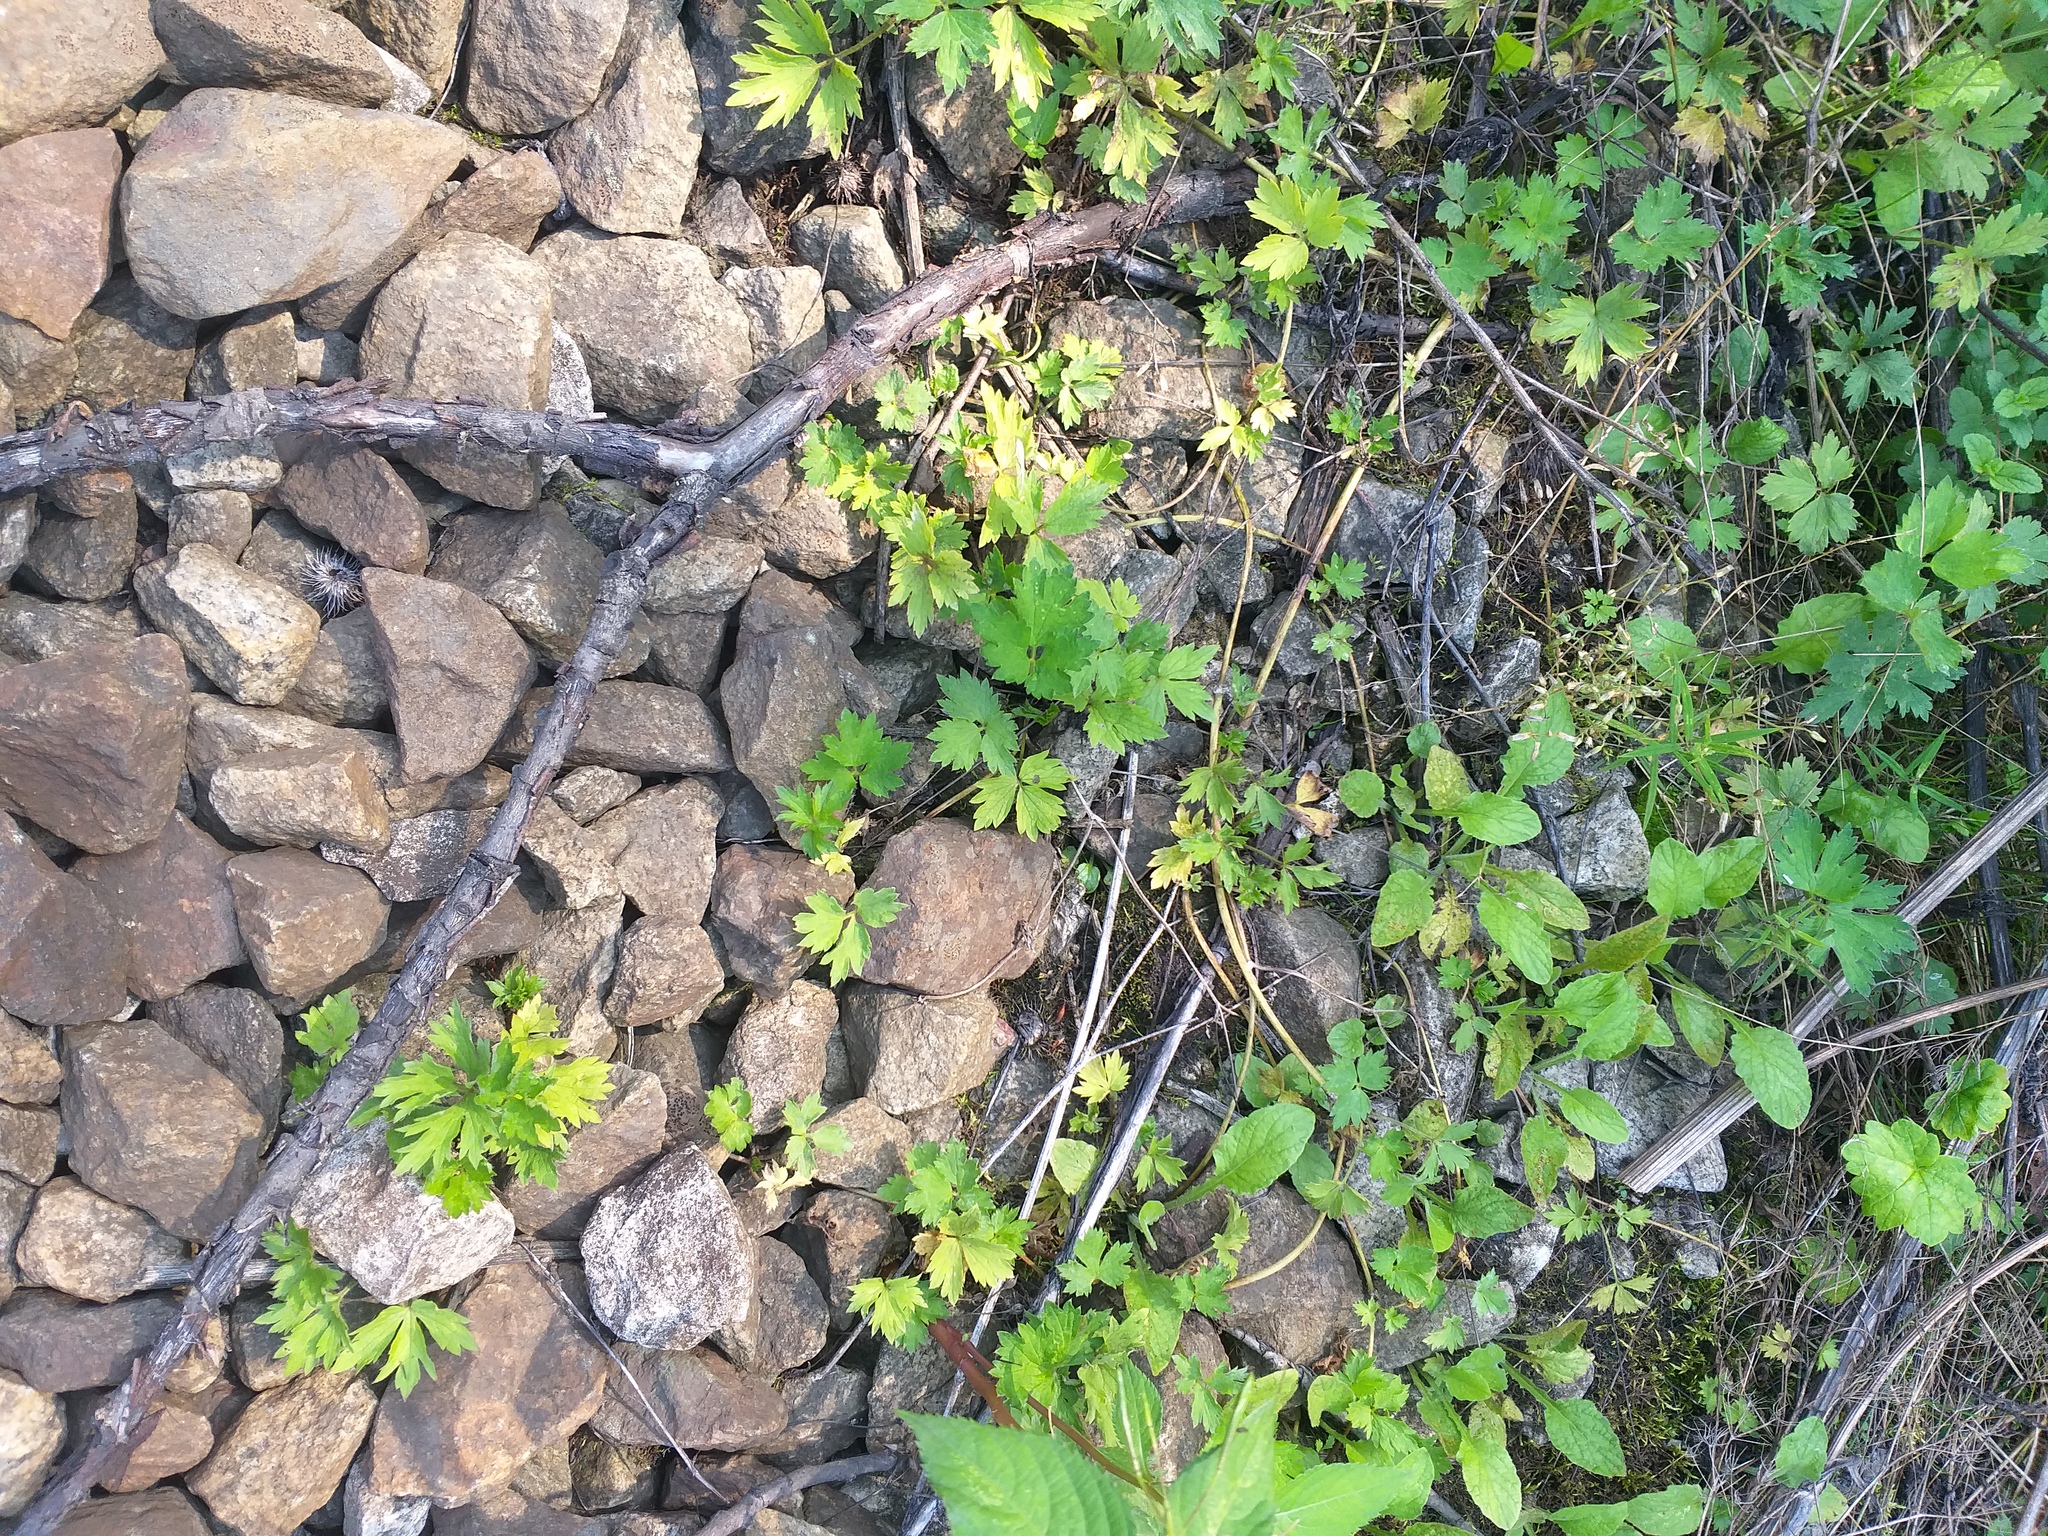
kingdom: Plantae
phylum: Tracheophyta
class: Magnoliopsida
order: Ranunculales
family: Ranunculaceae
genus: Ranunculus
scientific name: Ranunculus repens
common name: Creeping buttercup
